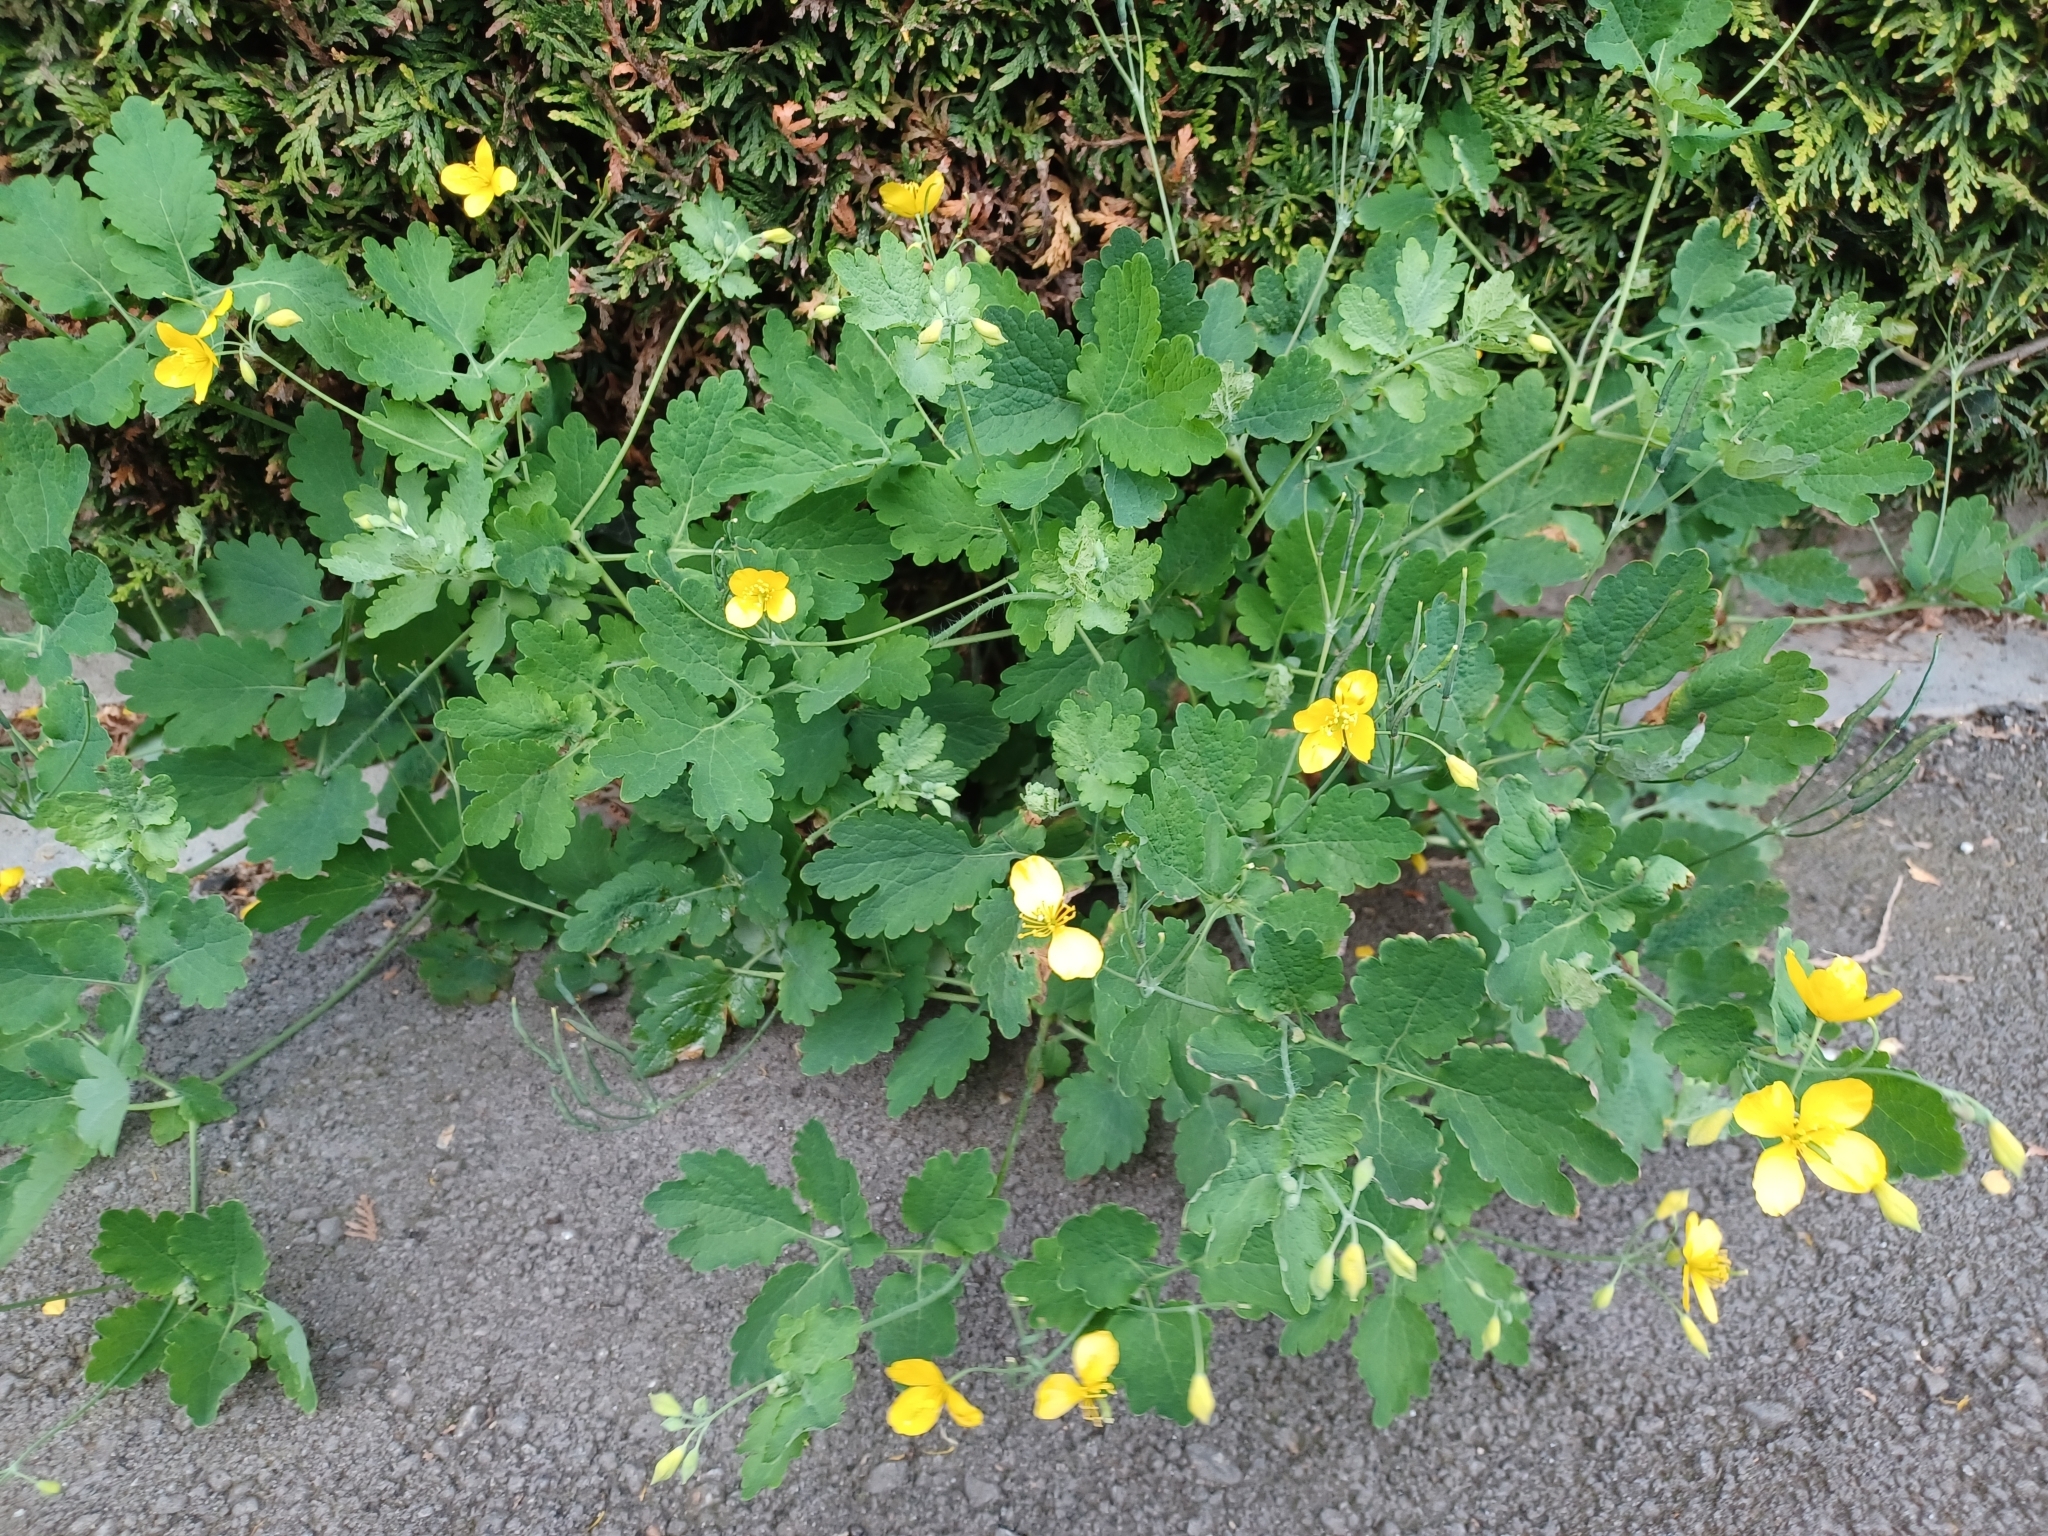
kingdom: Plantae
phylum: Tracheophyta
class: Magnoliopsida
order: Ranunculales
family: Papaveraceae
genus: Chelidonium
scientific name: Chelidonium majus
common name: Greater celandine
